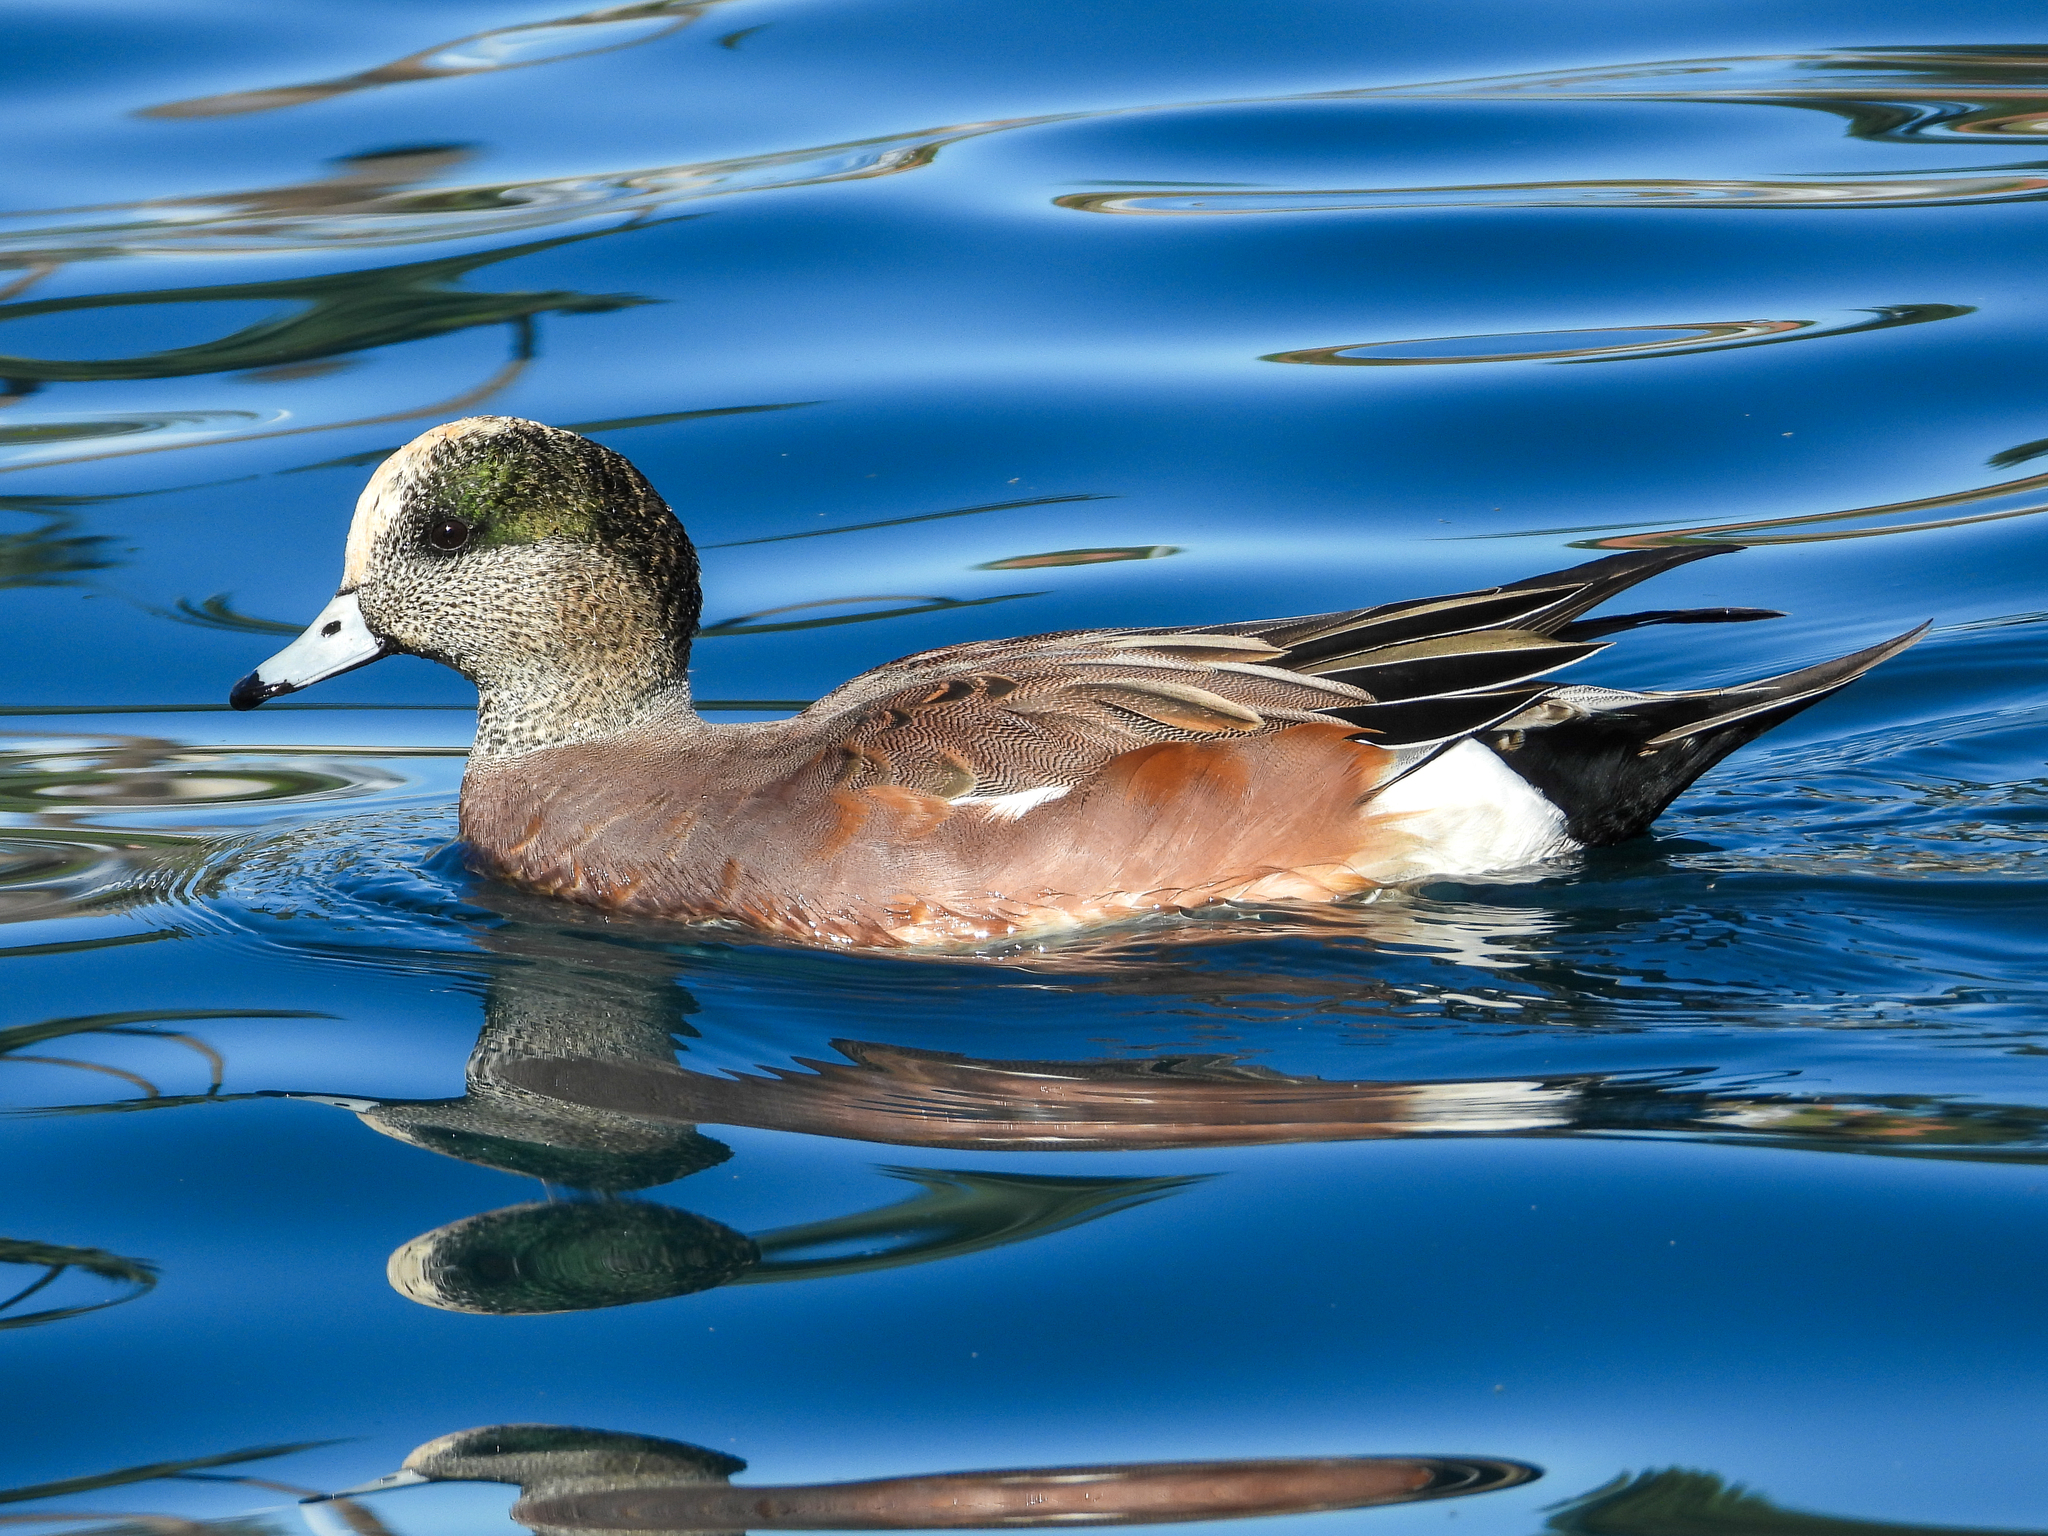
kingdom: Animalia
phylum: Chordata
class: Aves
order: Anseriformes
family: Anatidae
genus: Mareca
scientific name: Mareca americana
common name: American wigeon
